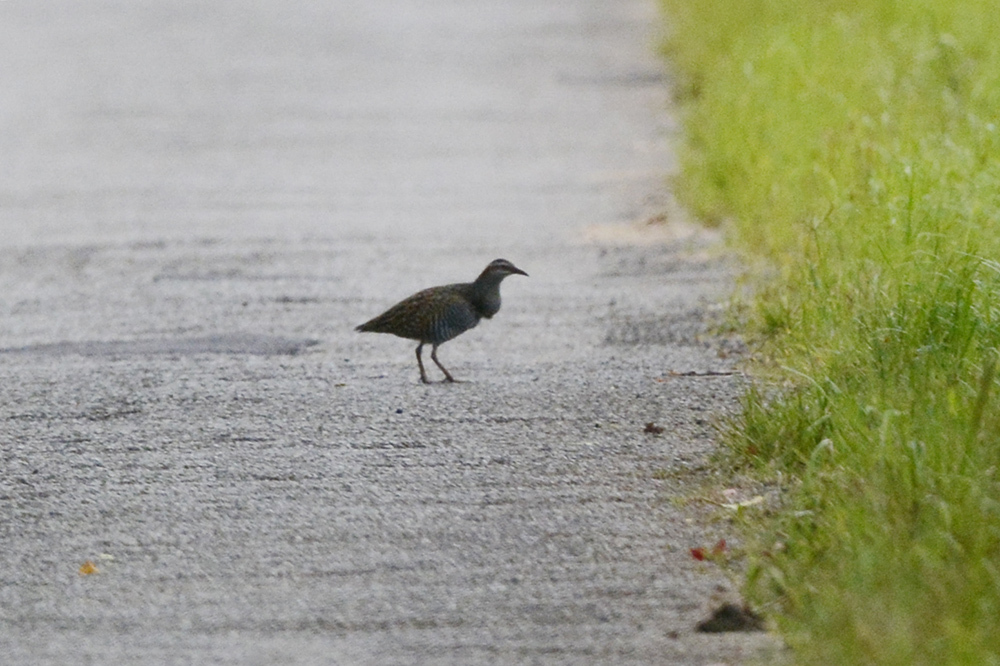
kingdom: Animalia
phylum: Chordata
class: Aves
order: Gruiformes
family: Rallidae
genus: Gallirallus
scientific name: Gallirallus philippensis
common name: Buff-banded rail
